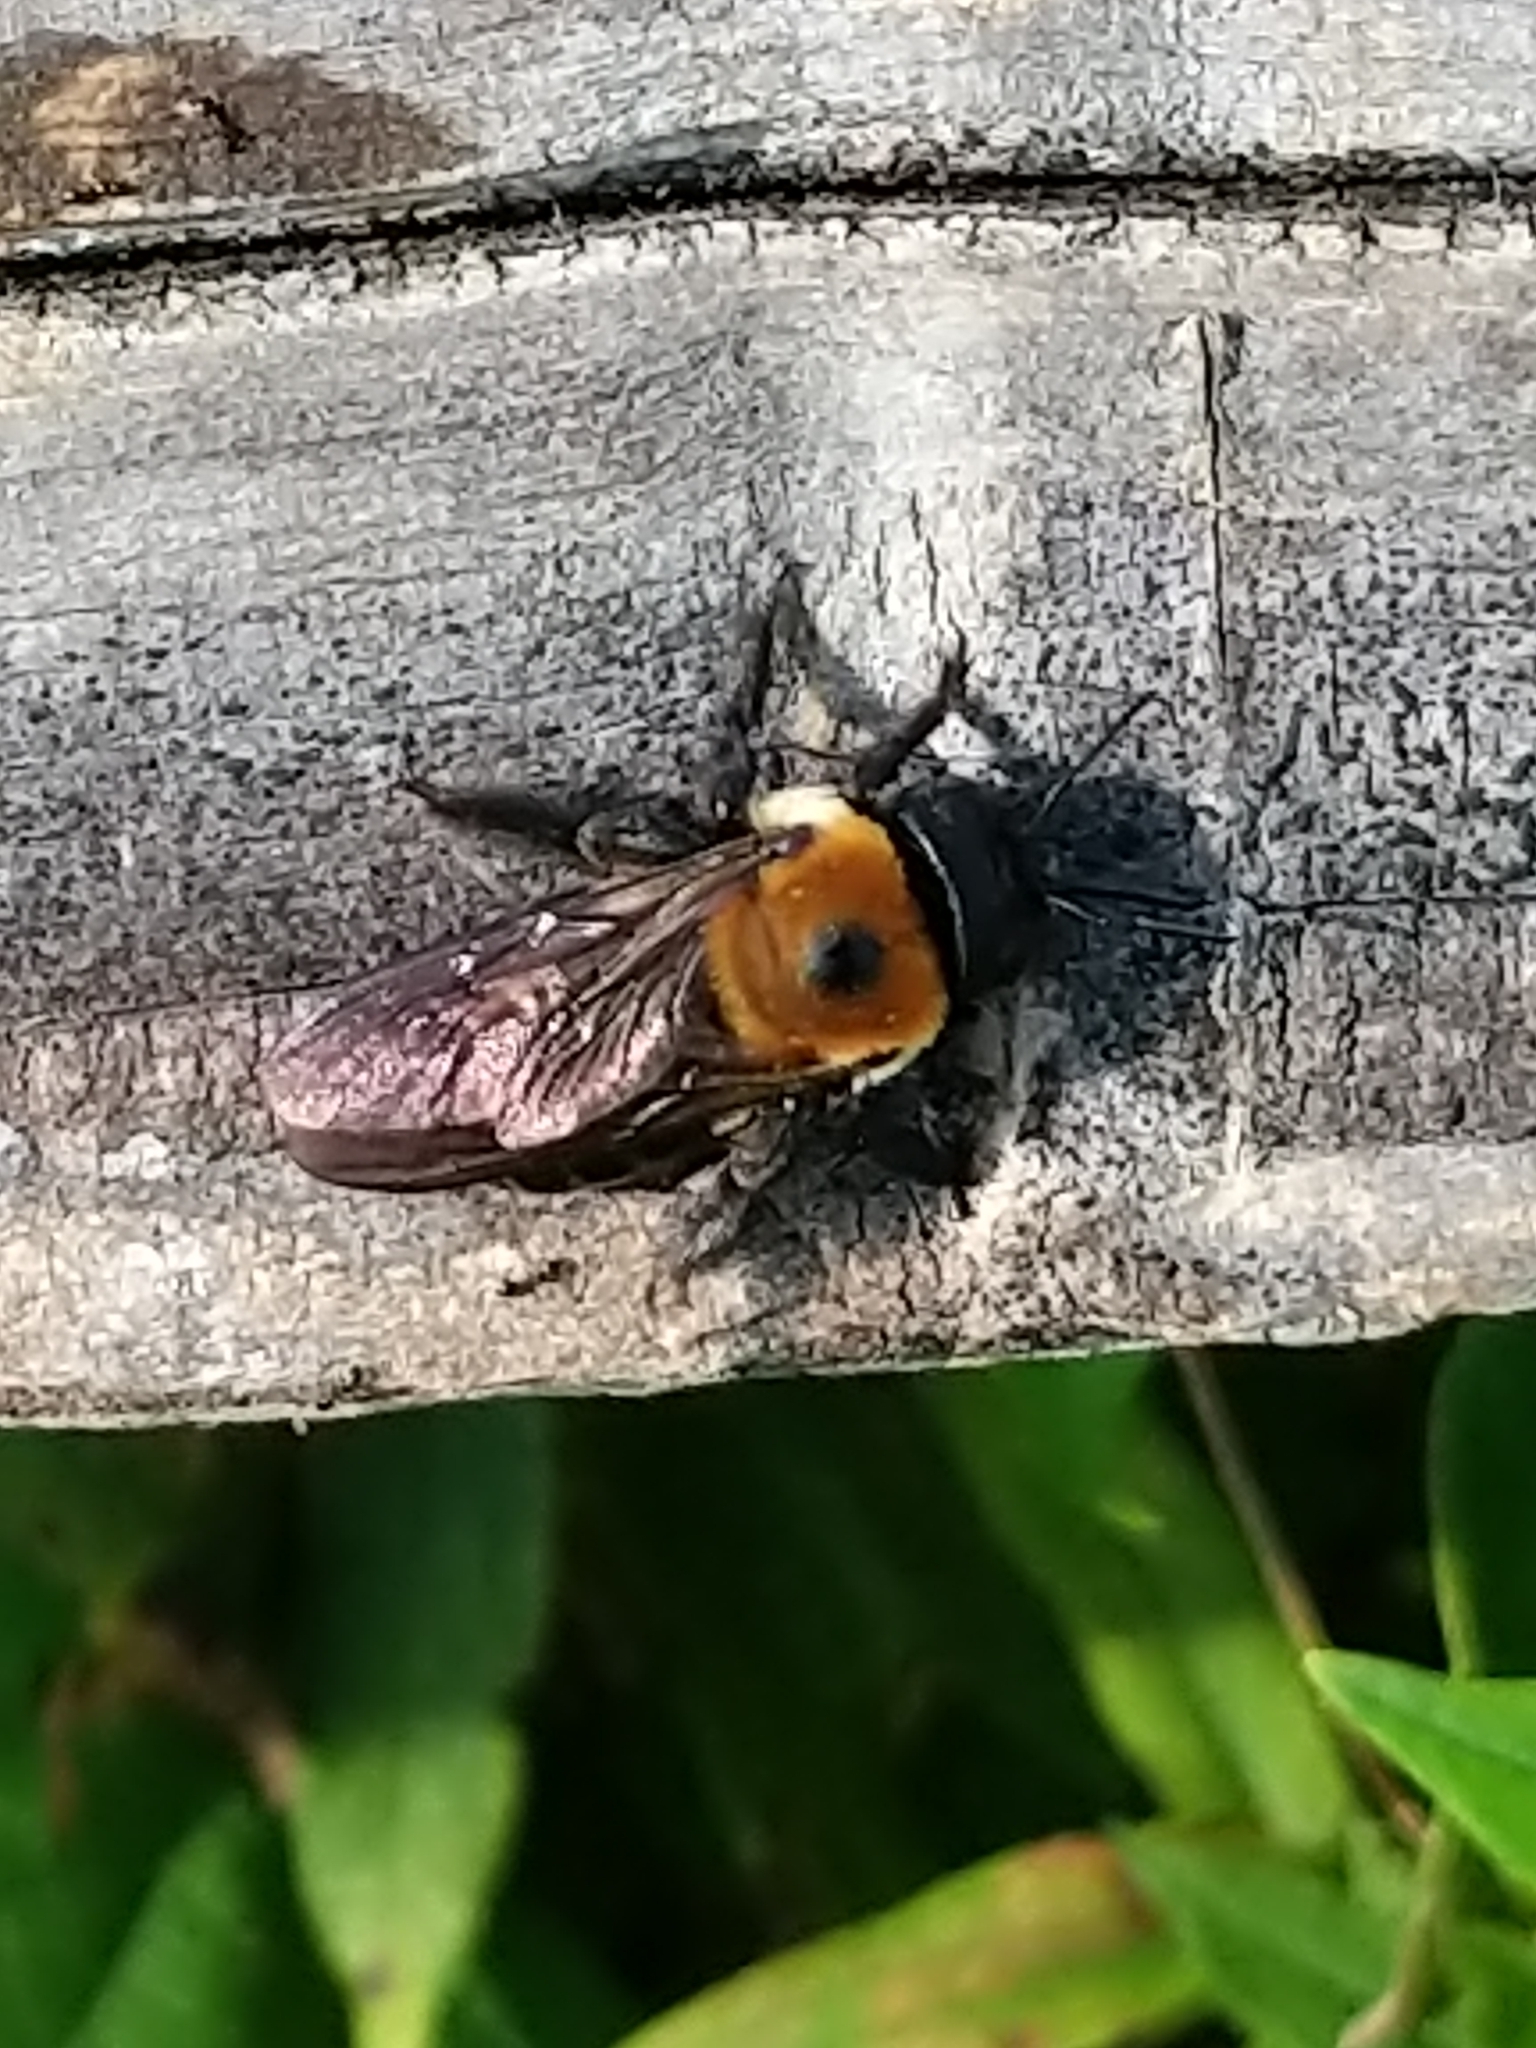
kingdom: Animalia
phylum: Arthropoda
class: Insecta
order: Hymenoptera
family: Apidae
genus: Xylocopa
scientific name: Xylocopa virginica
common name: Carpenter bee
